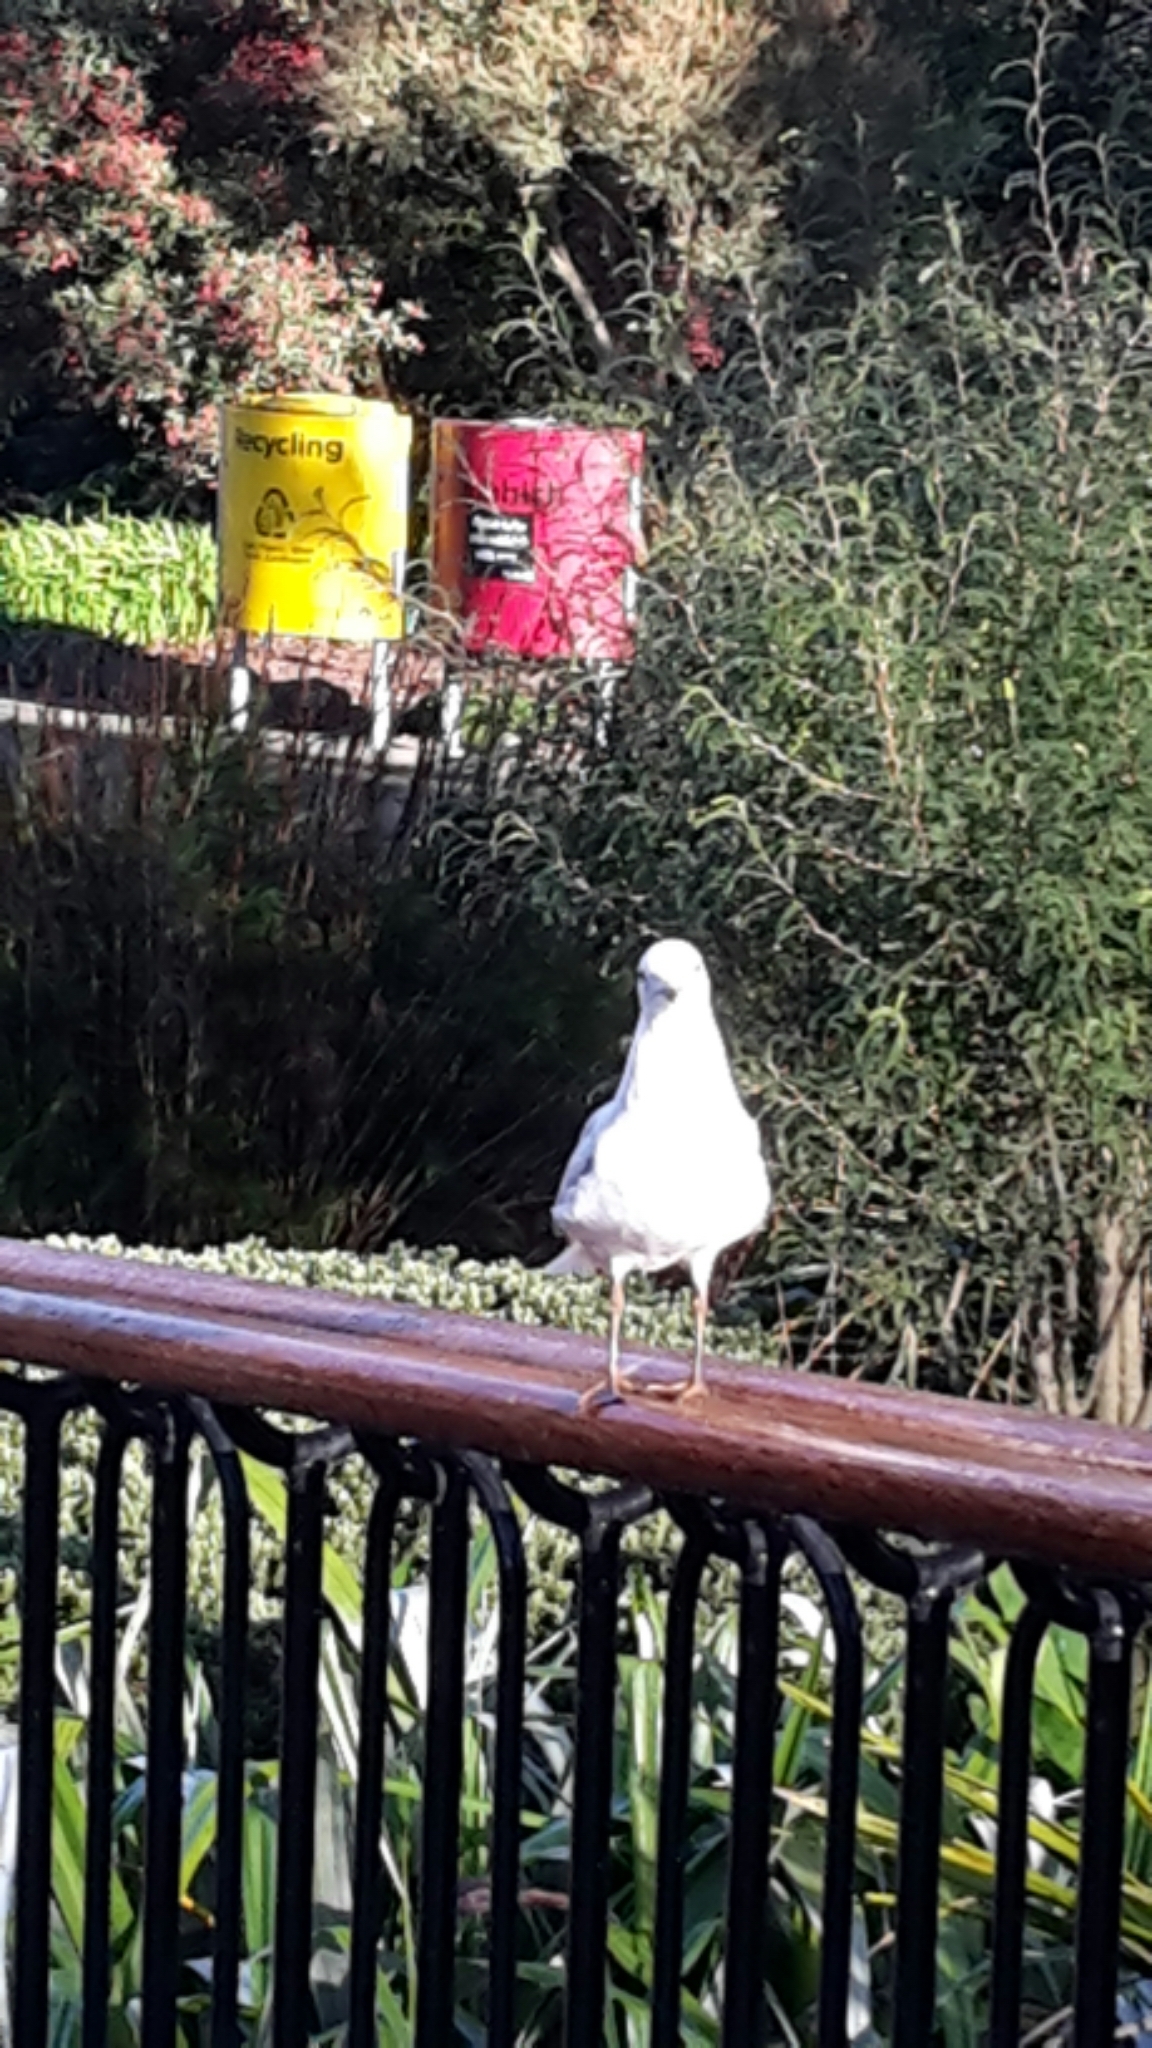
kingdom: Animalia
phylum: Chordata
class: Aves
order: Charadriiformes
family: Laridae
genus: Chroicocephalus
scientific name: Chroicocephalus novaehollandiae
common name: Silver gull
